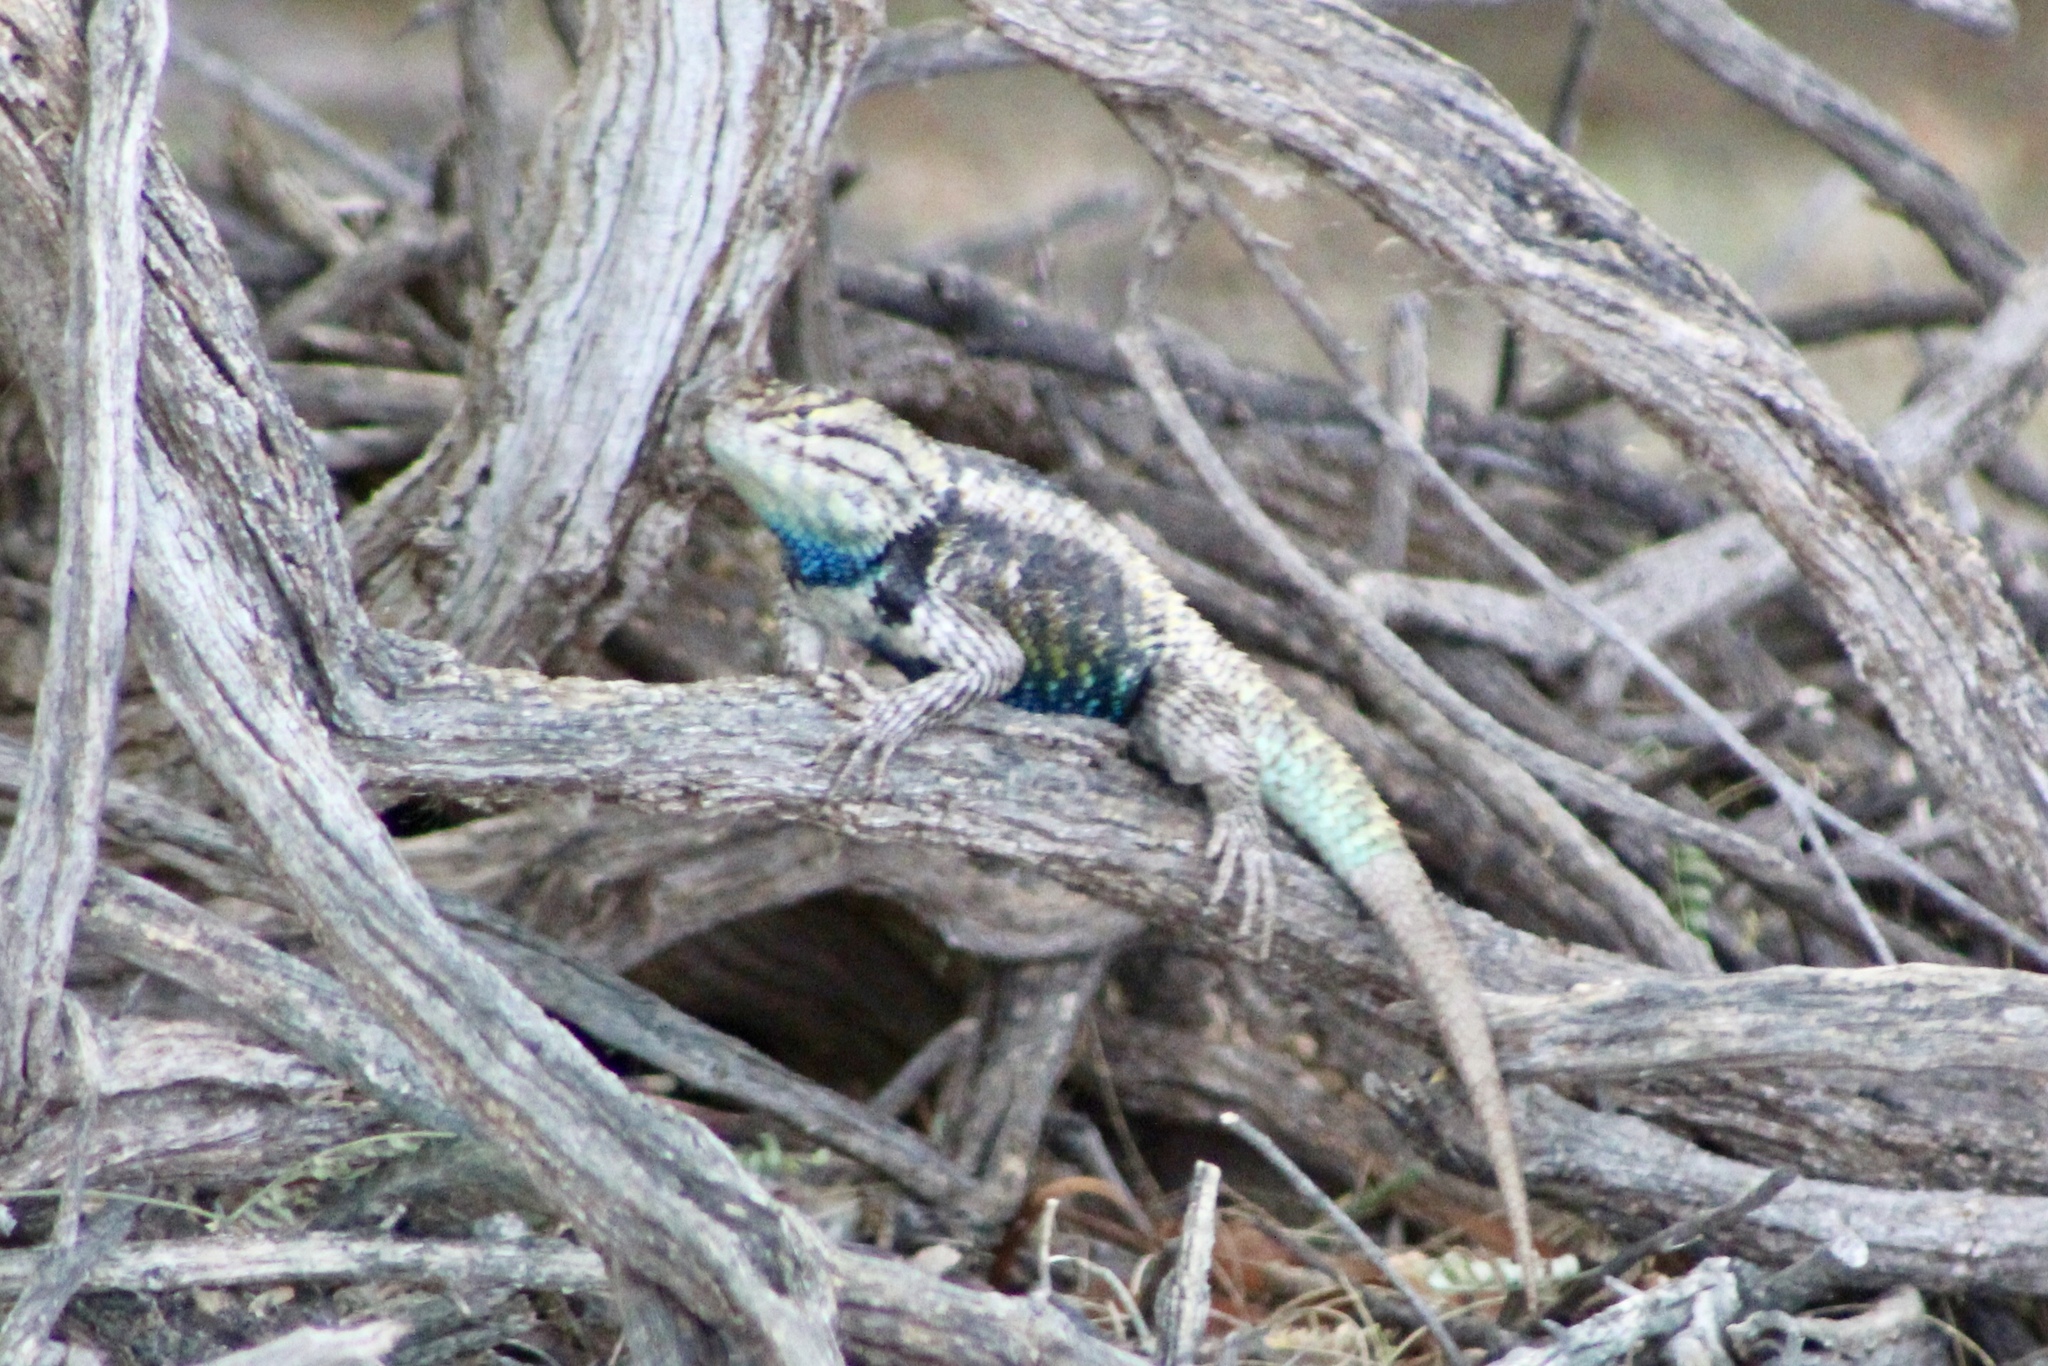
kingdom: Animalia
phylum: Chordata
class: Squamata
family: Phrynosomatidae
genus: Sceloporus
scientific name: Sceloporus magister
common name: Desert spiny lizard
